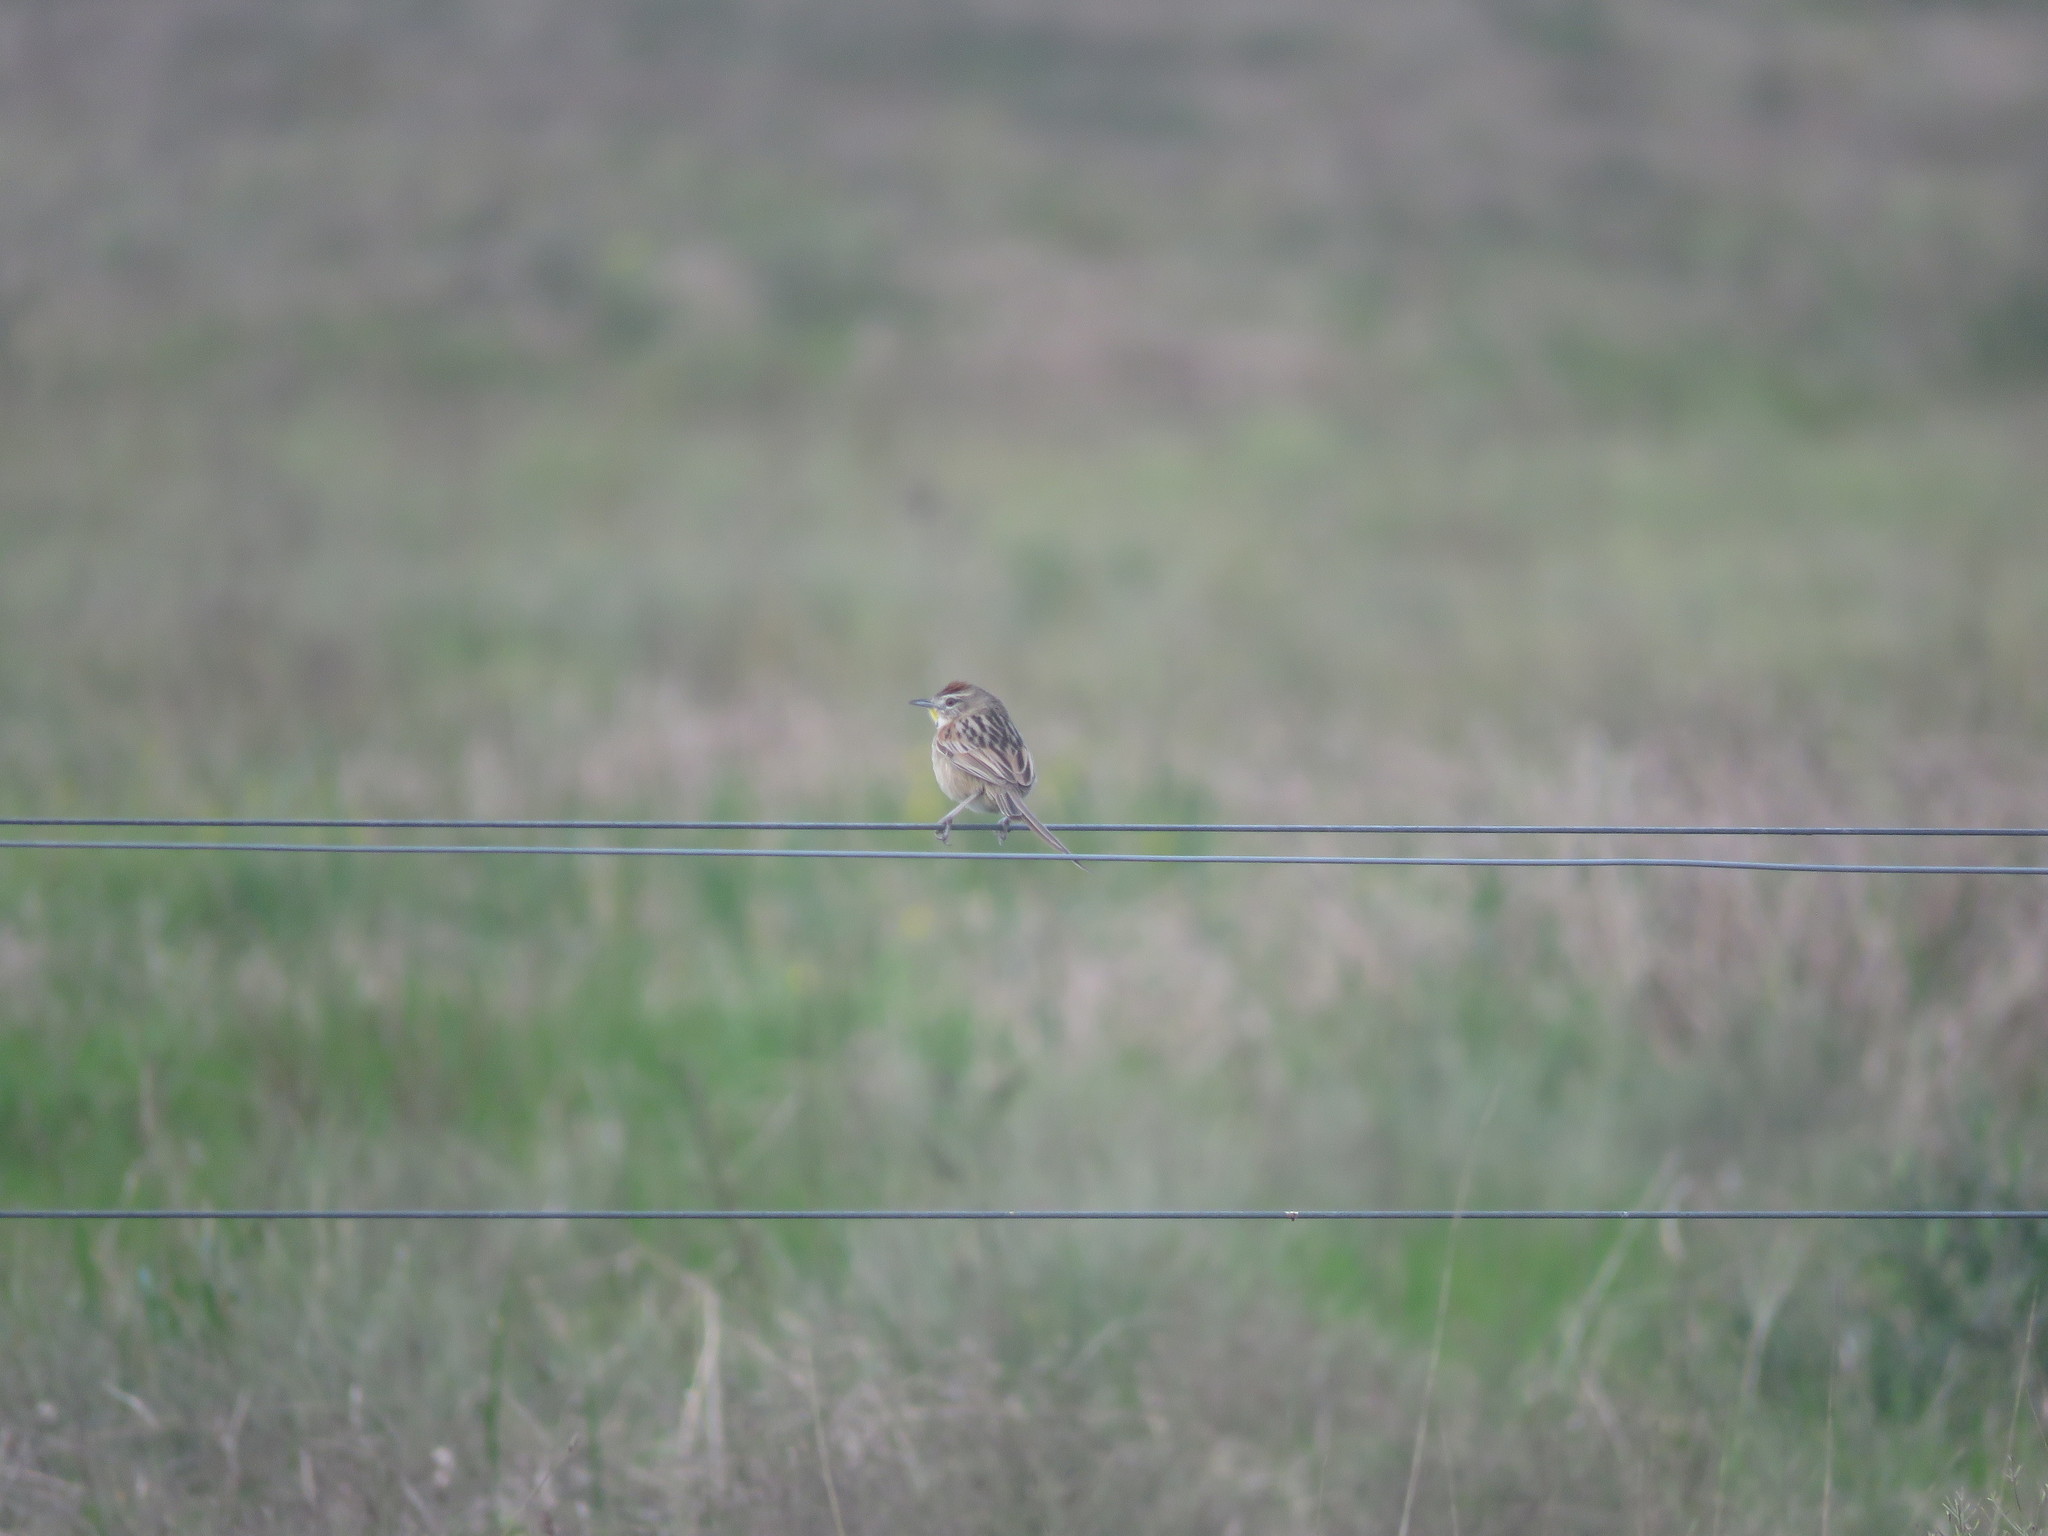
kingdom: Animalia
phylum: Chordata
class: Aves
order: Passeriformes
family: Furnariidae
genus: Schoeniophylax
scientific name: Schoeniophylax phryganophilus
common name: Chotoy spinetail
